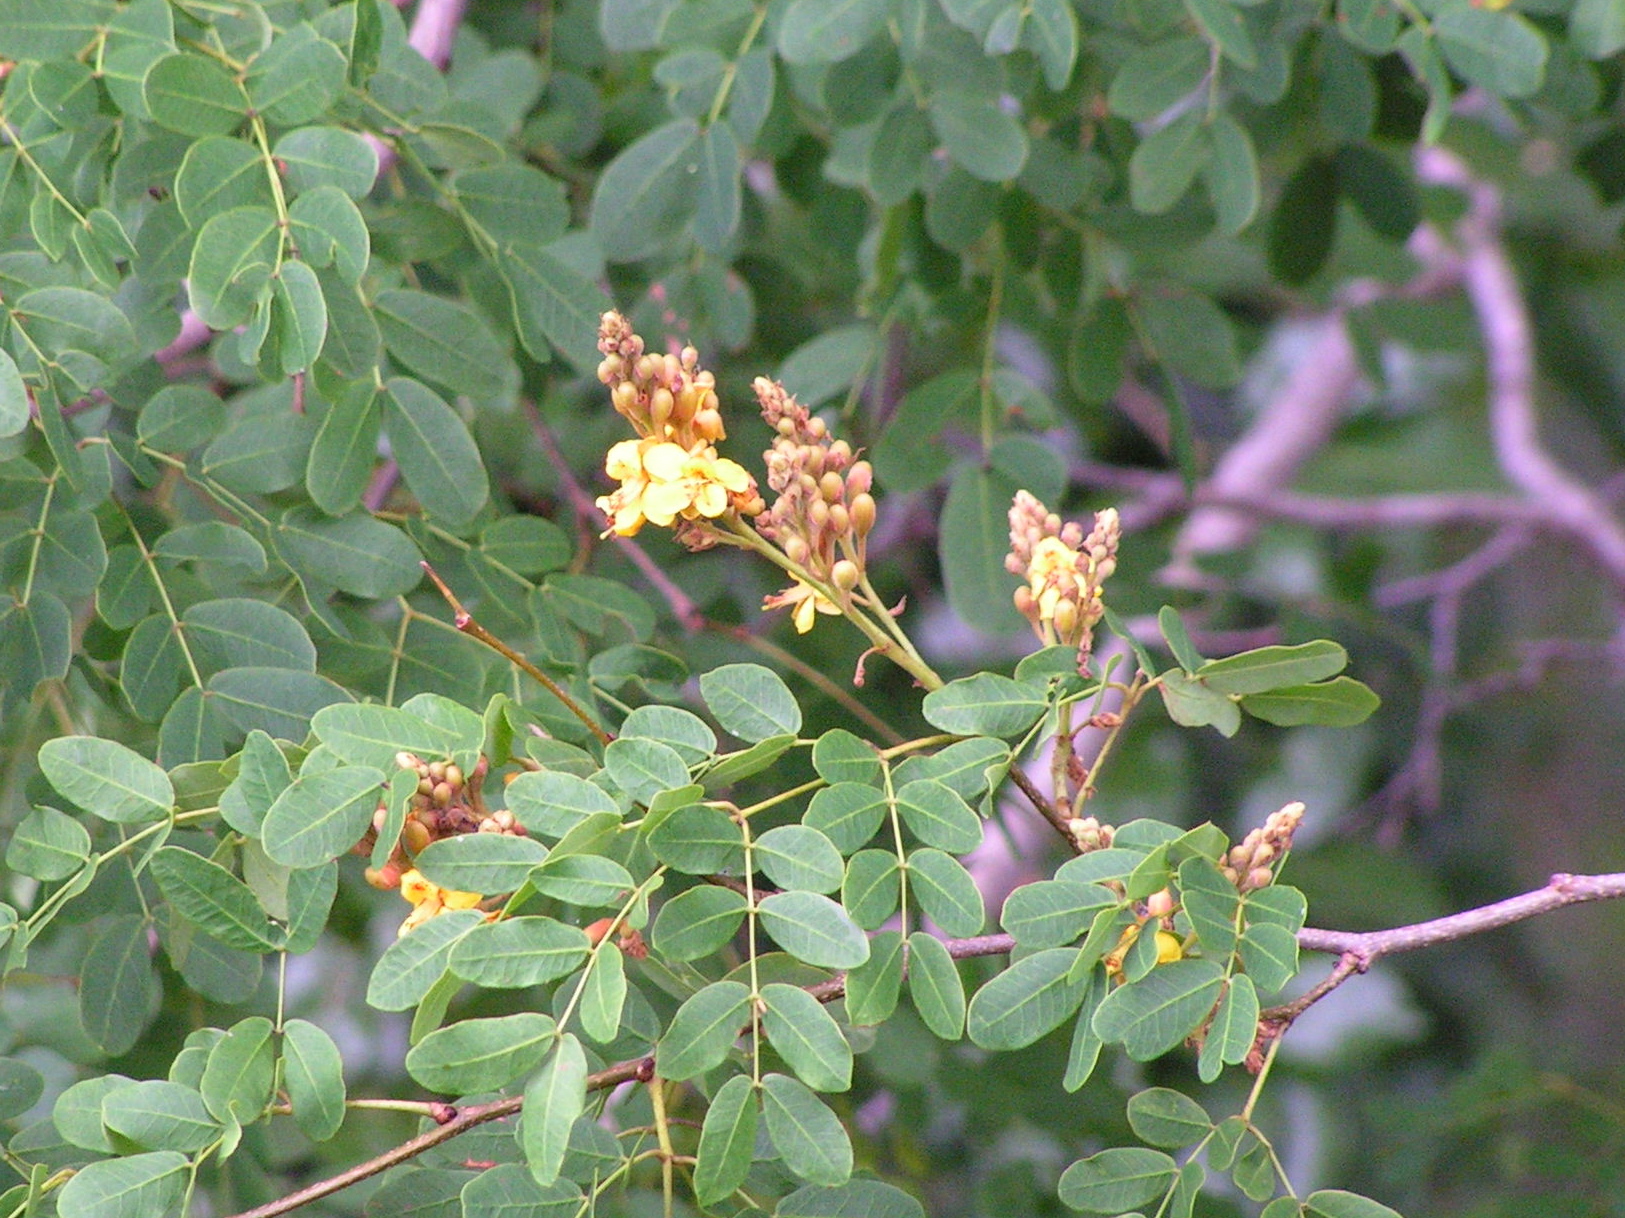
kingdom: Plantae
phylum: Tracheophyta
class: Magnoliopsida
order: Fabales
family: Fabaceae
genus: Libidibia
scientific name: Libidibia sclerocarpa
